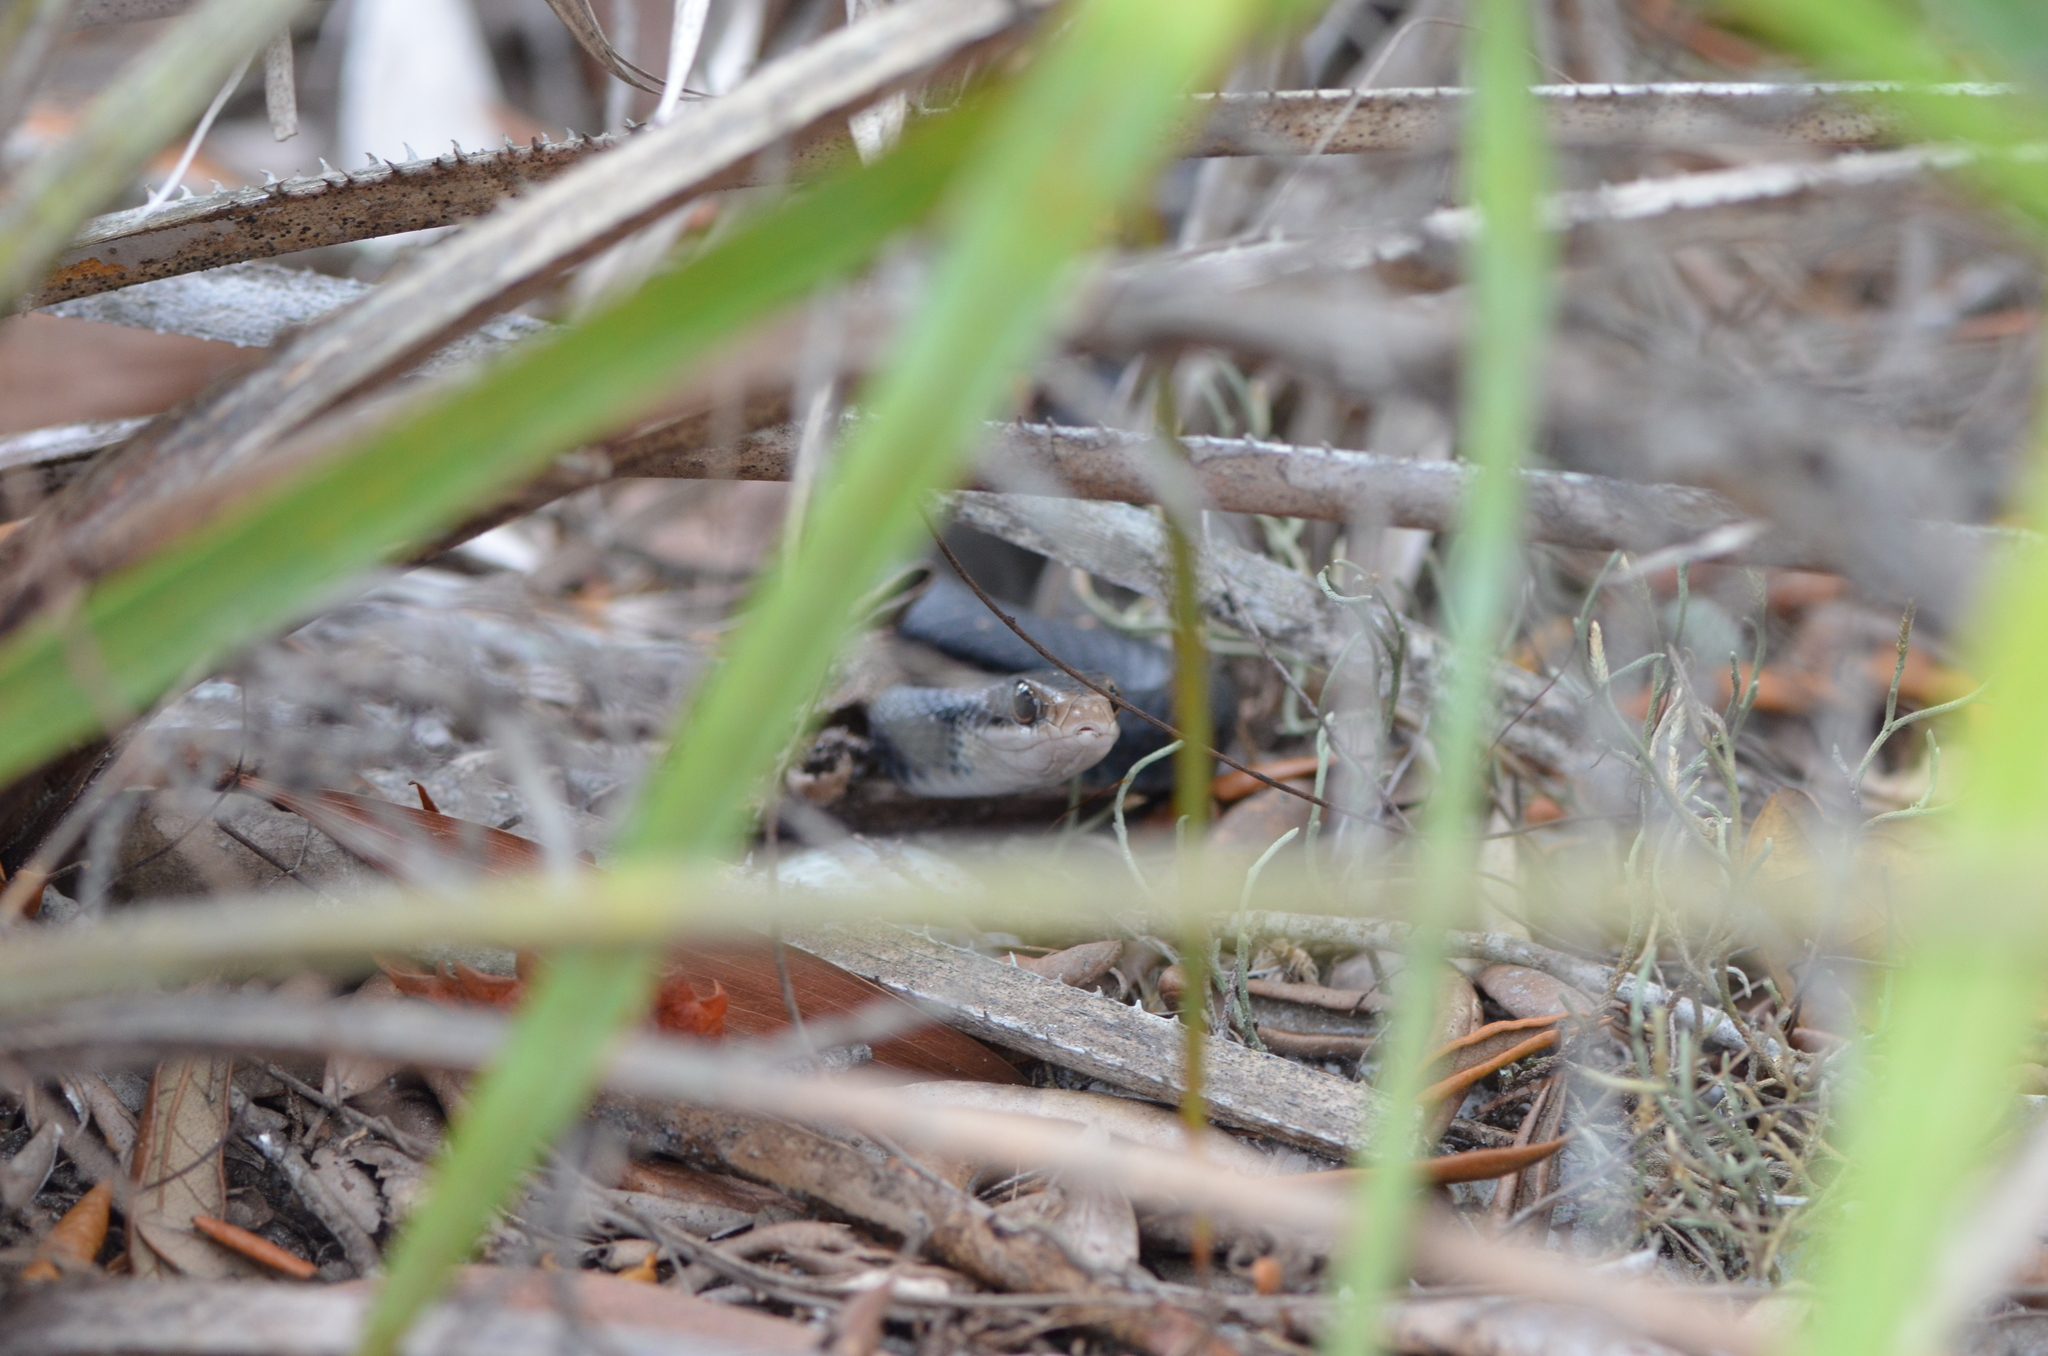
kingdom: Animalia
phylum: Chordata
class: Squamata
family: Colubridae
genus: Coluber
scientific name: Coluber constrictor
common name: Eastern racer
